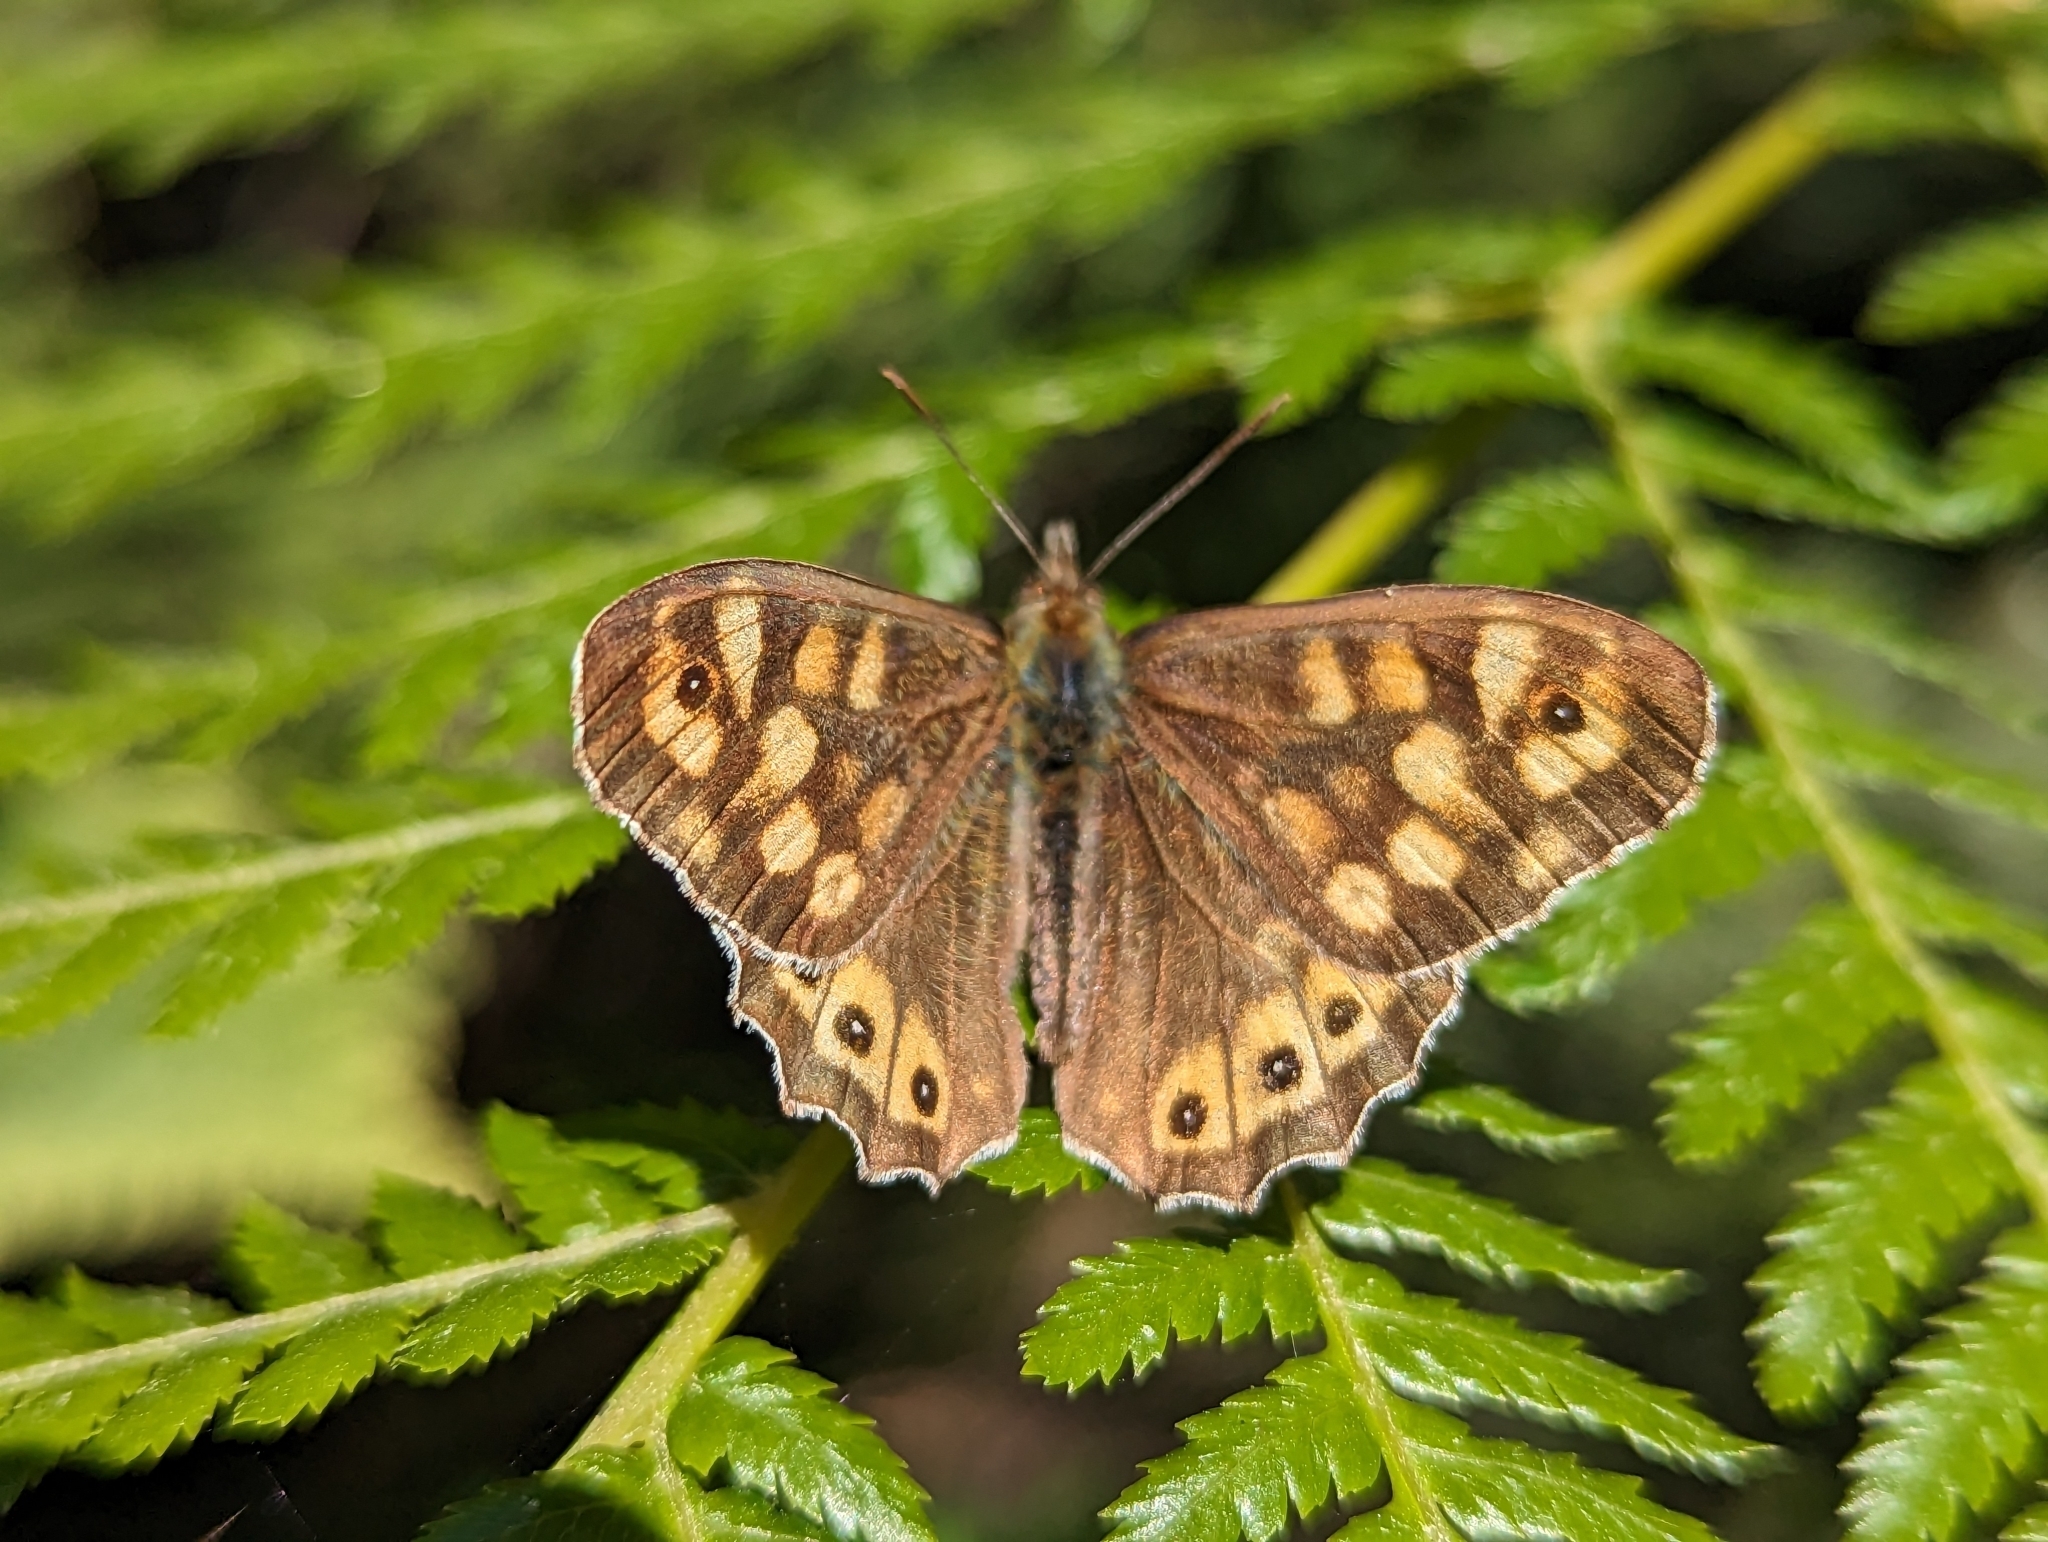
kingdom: Animalia
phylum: Arthropoda
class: Insecta
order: Lepidoptera
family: Nymphalidae
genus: Pararge
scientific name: Pararge aegeria
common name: Speckled wood
